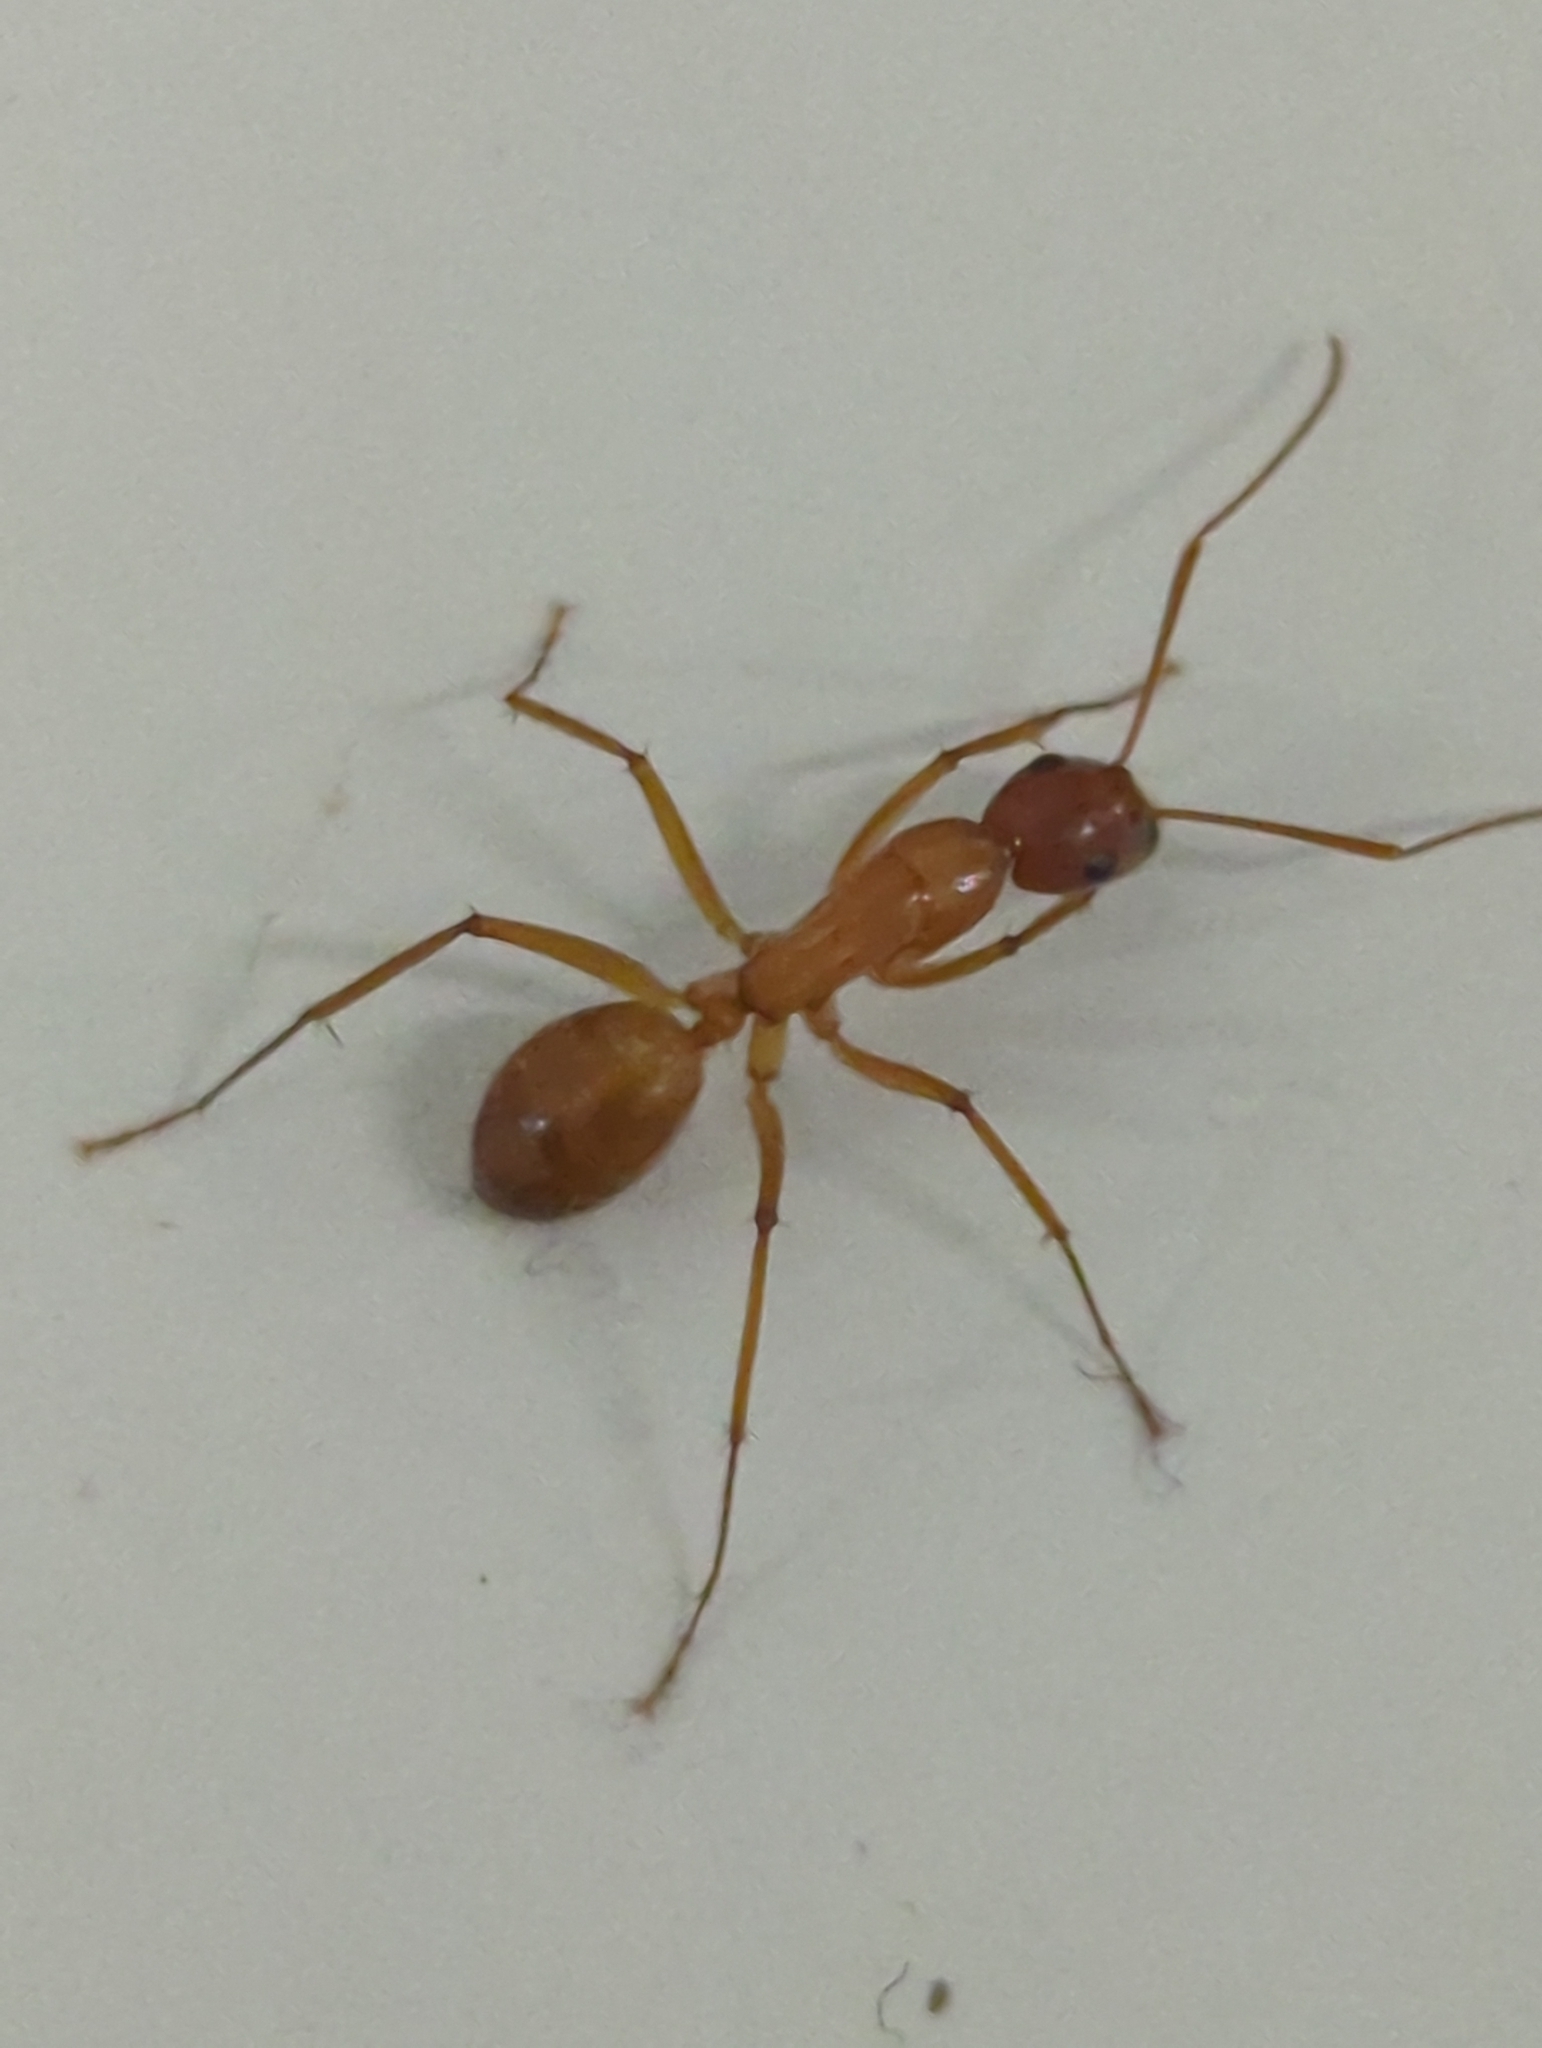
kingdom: Animalia
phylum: Arthropoda
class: Insecta
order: Hymenoptera
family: Formicidae
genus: Camponotus
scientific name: Camponotus castaneus
